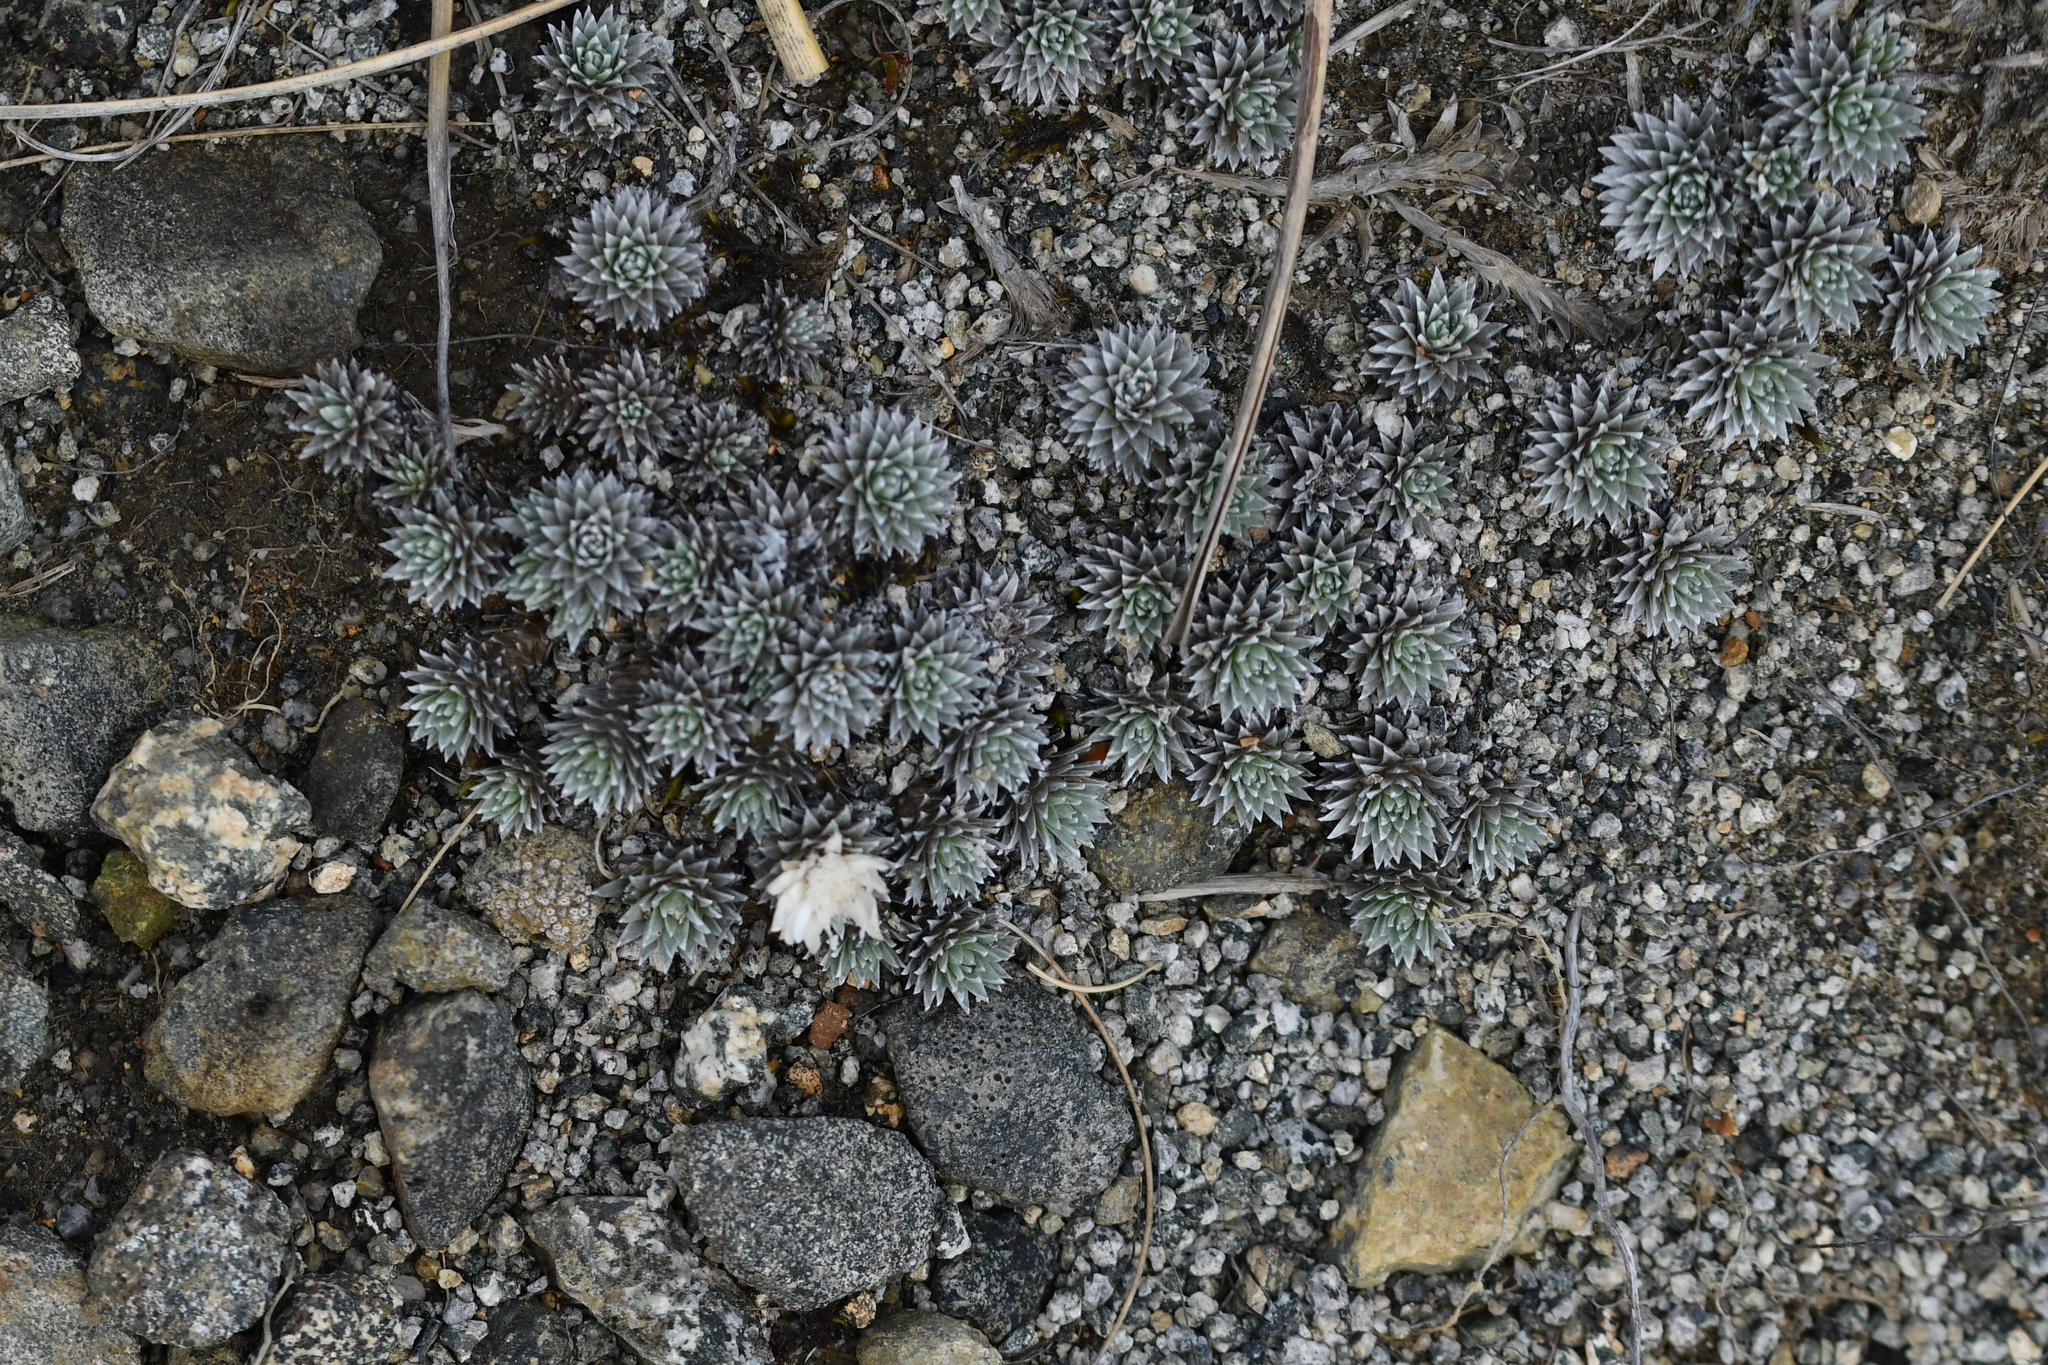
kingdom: Plantae
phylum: Tracheophyta
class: Magnoliopsida
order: Asterales
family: Asteraceae
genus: Raoulia
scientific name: Raoulia grandiflora
